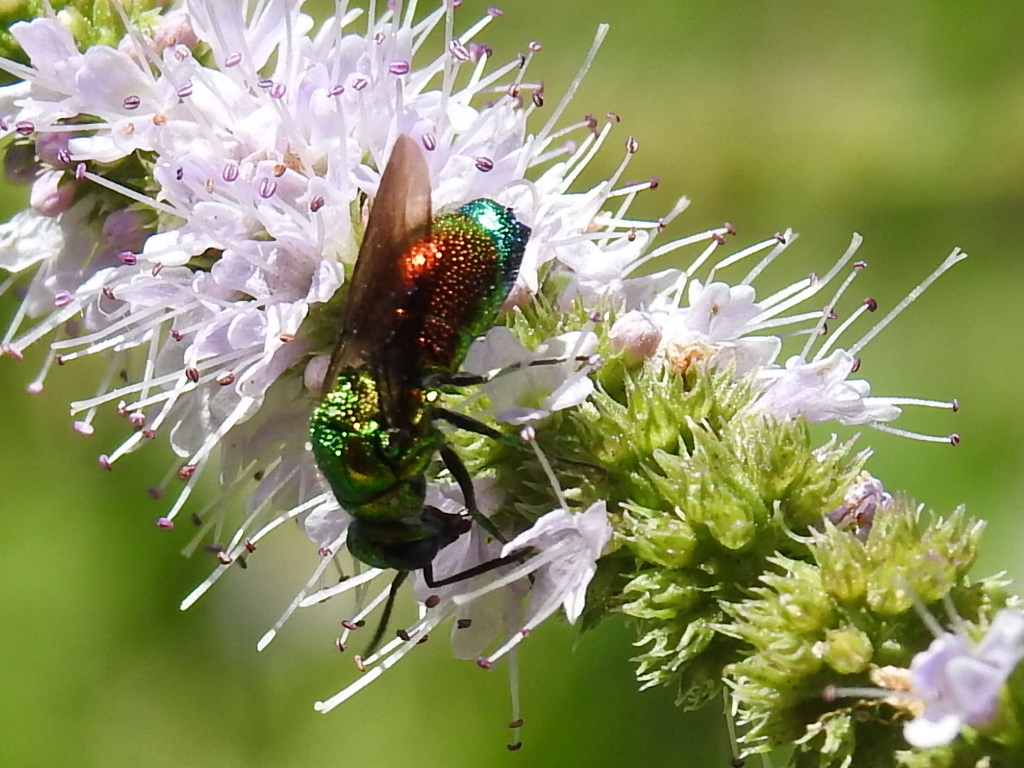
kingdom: Animalia
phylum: Arthropoda
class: Insecta
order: Hymenoptera
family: Chrysididae
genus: Stilbum
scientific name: Stilbum cyanurum
